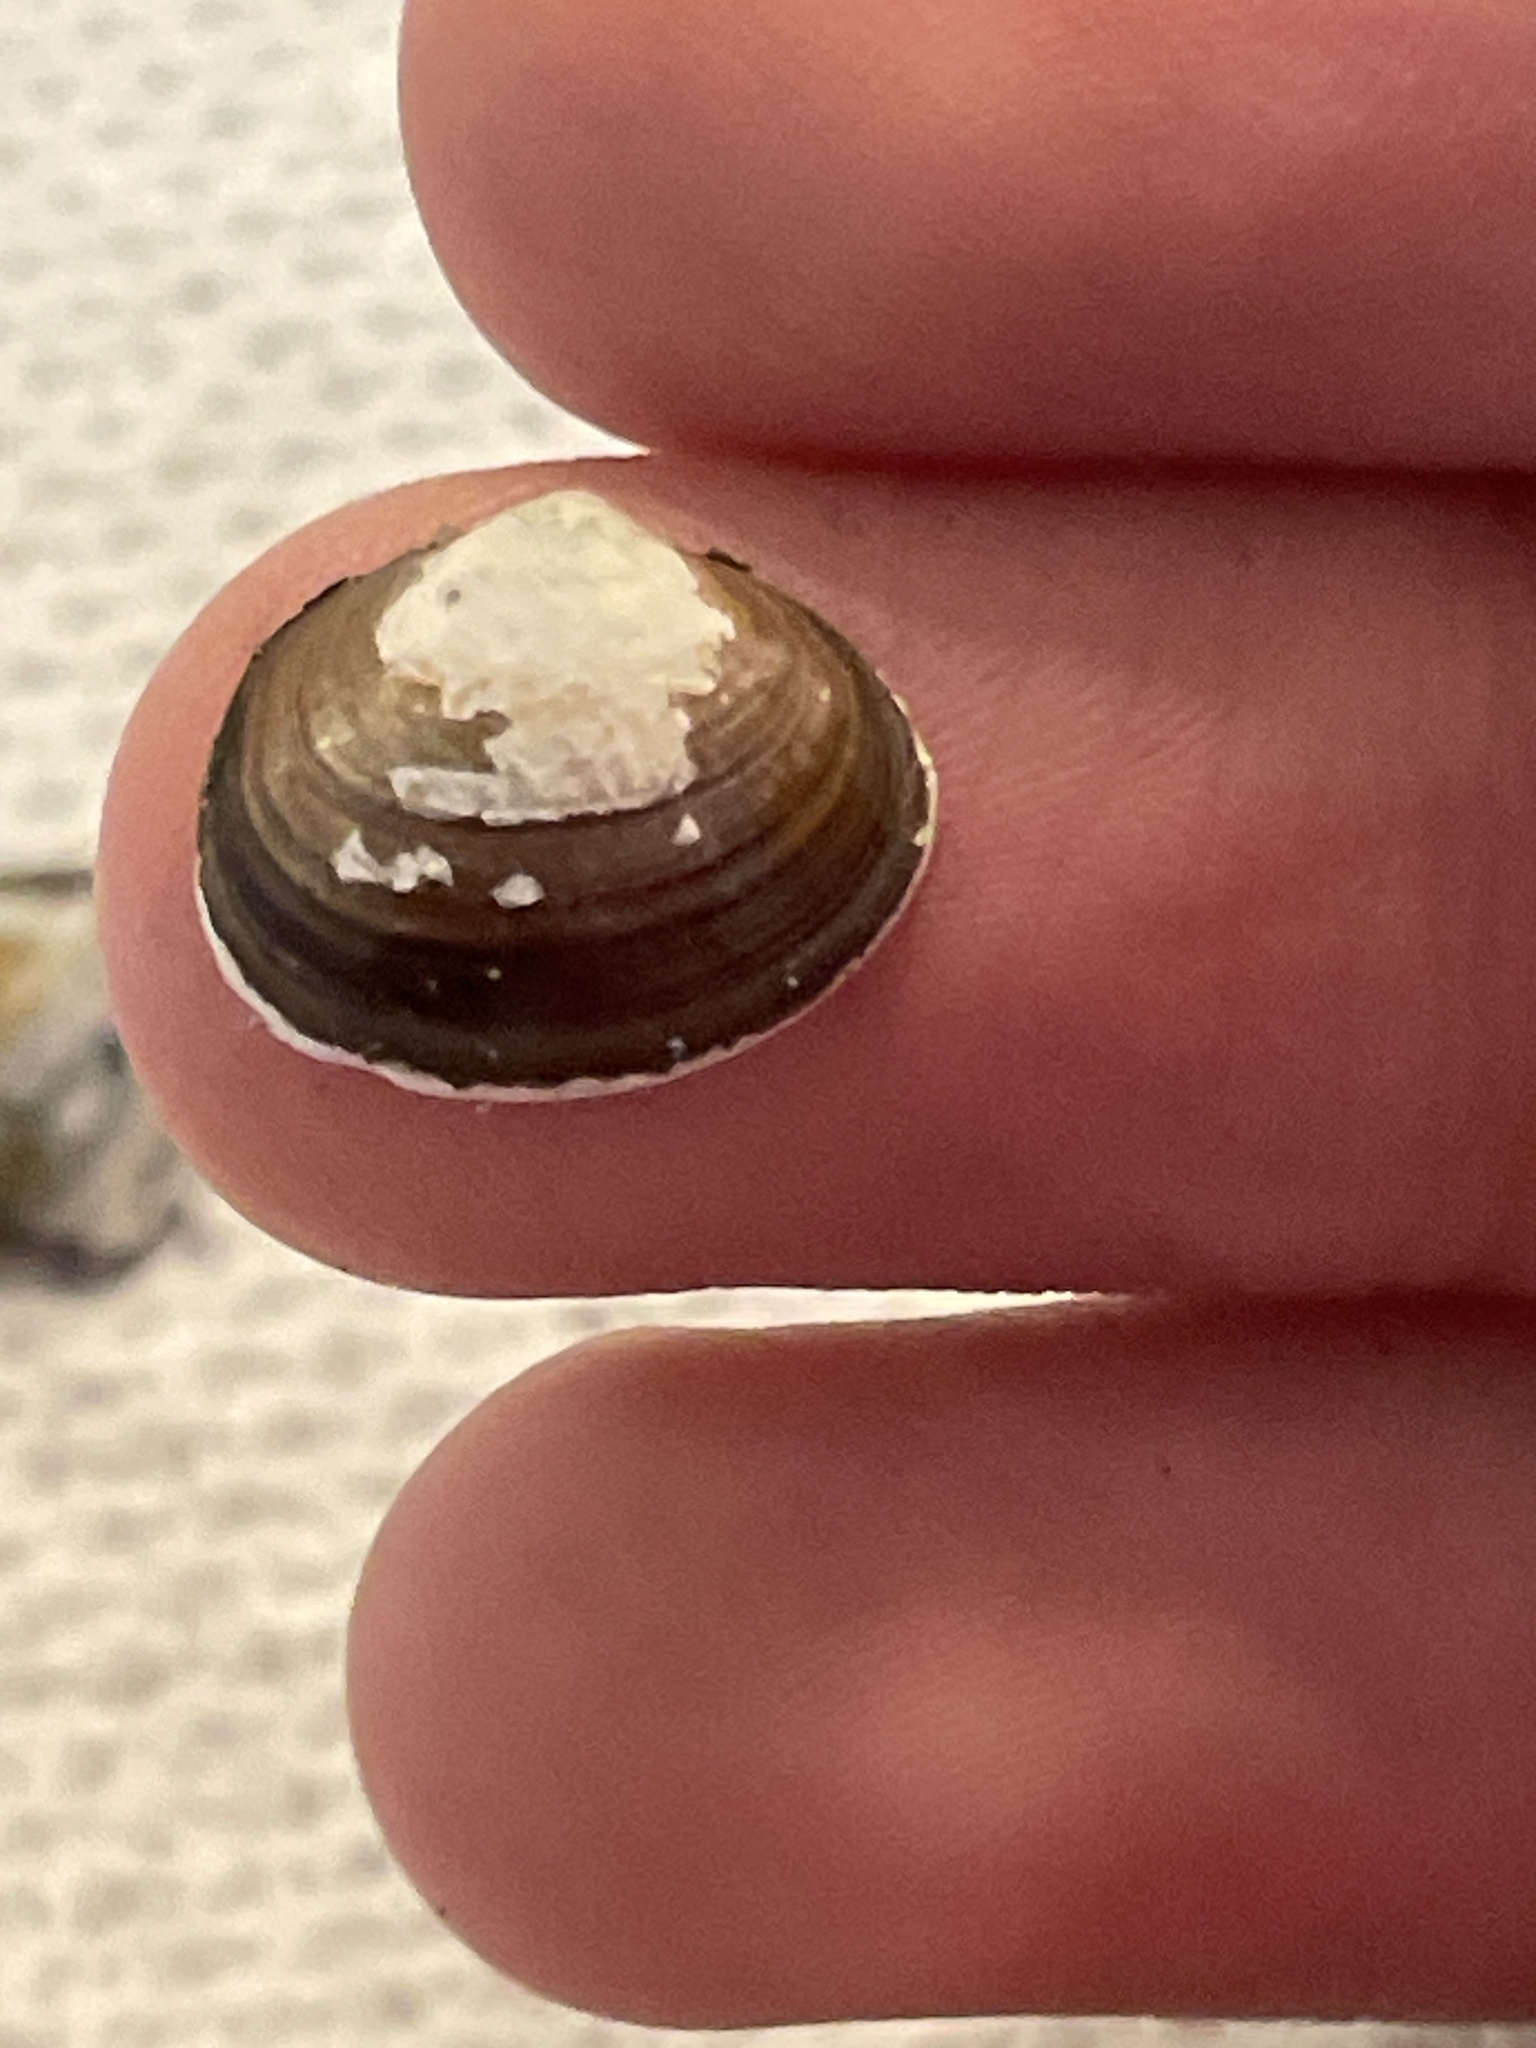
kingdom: Animalia
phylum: Mollusca
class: Bivalvia
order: Sphaeriida
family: Sphaeriidae
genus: Musculium
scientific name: Musculium lacustre
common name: Lake fingernailclam
